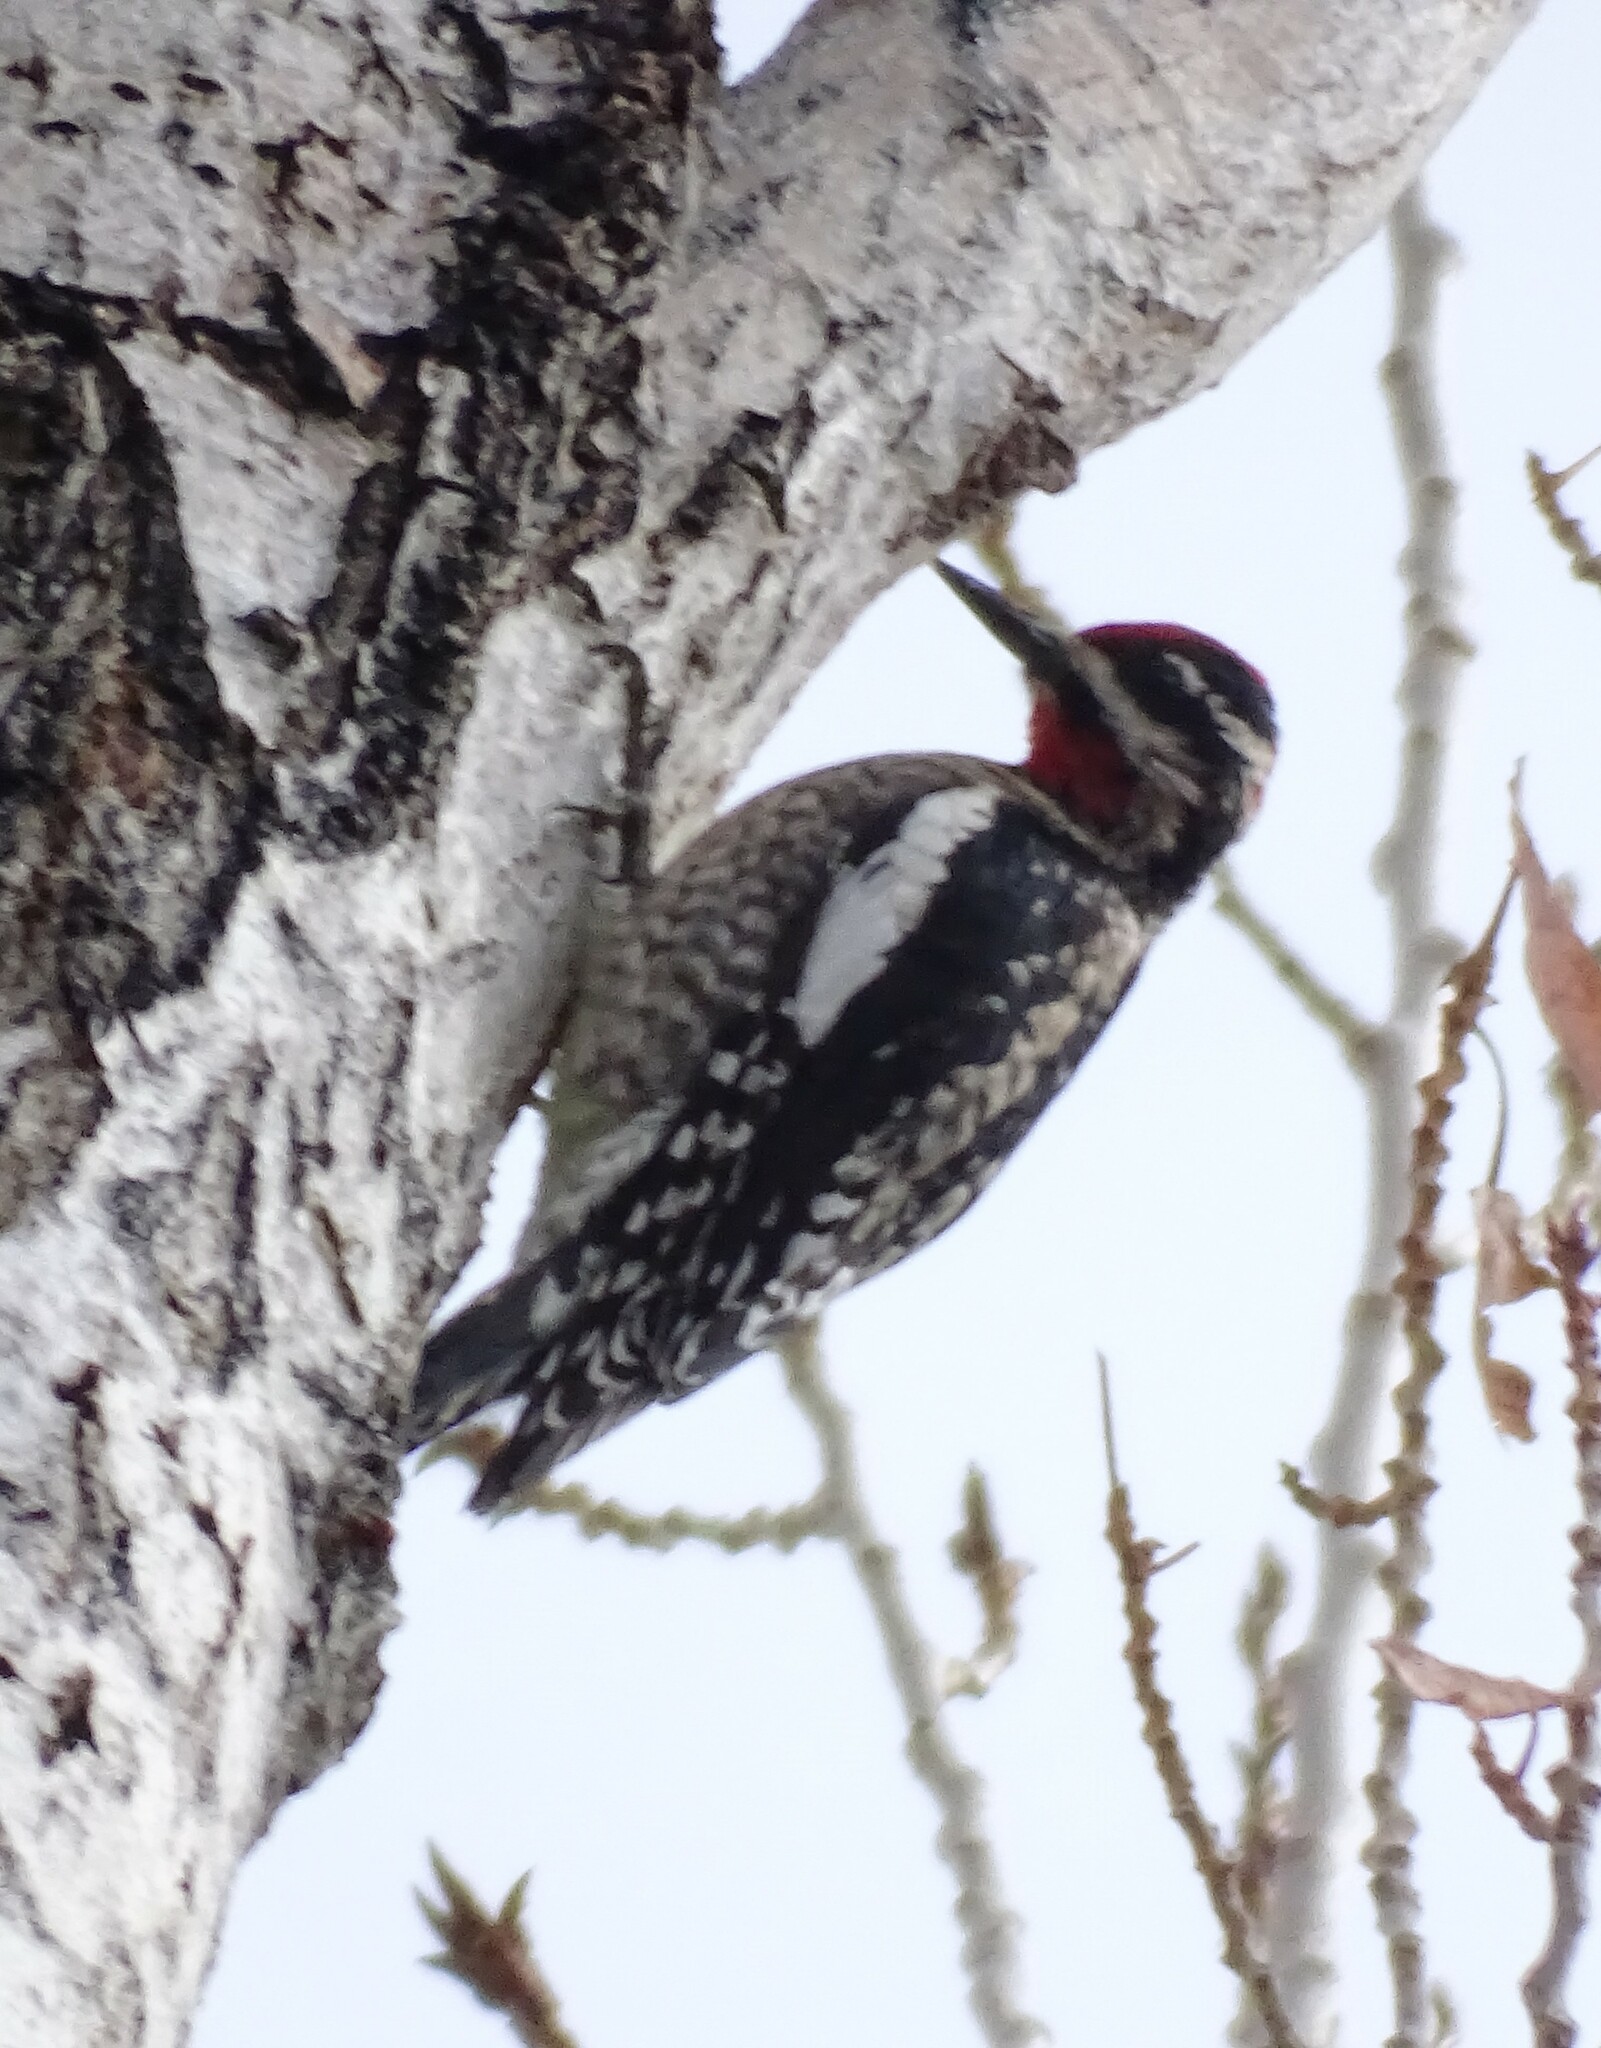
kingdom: Animalia
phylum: Chordata
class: Aves
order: Piciformes
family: Picidae
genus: Sphyrapicus
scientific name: Sphyrapicus nuchalis
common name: Red-naped sapsucker
